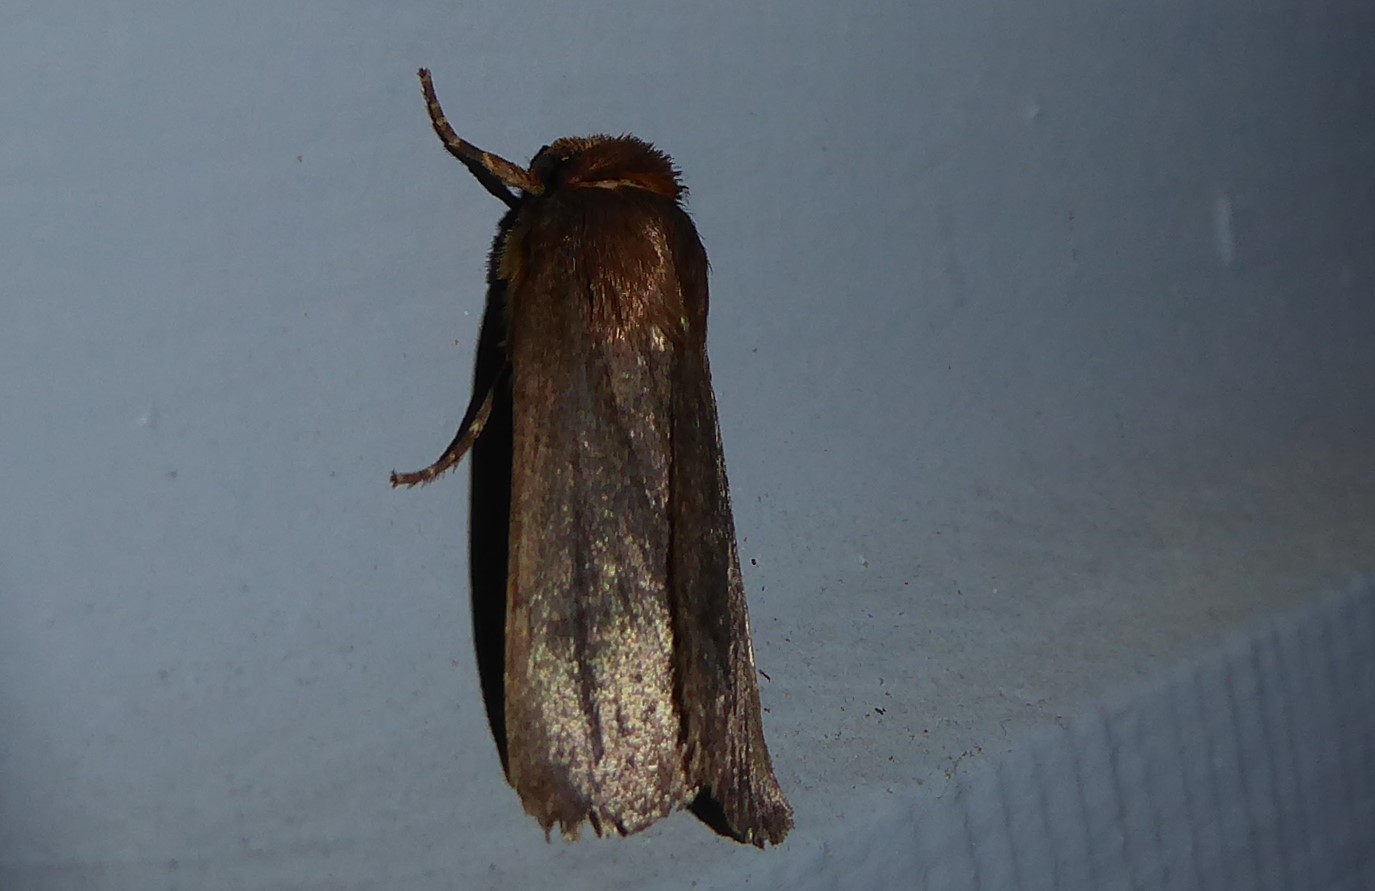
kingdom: Animalia
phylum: Arthropoda
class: Insecta
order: Lepidoptera
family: Noctuidae
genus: Bityla
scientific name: Bityla defigurata
